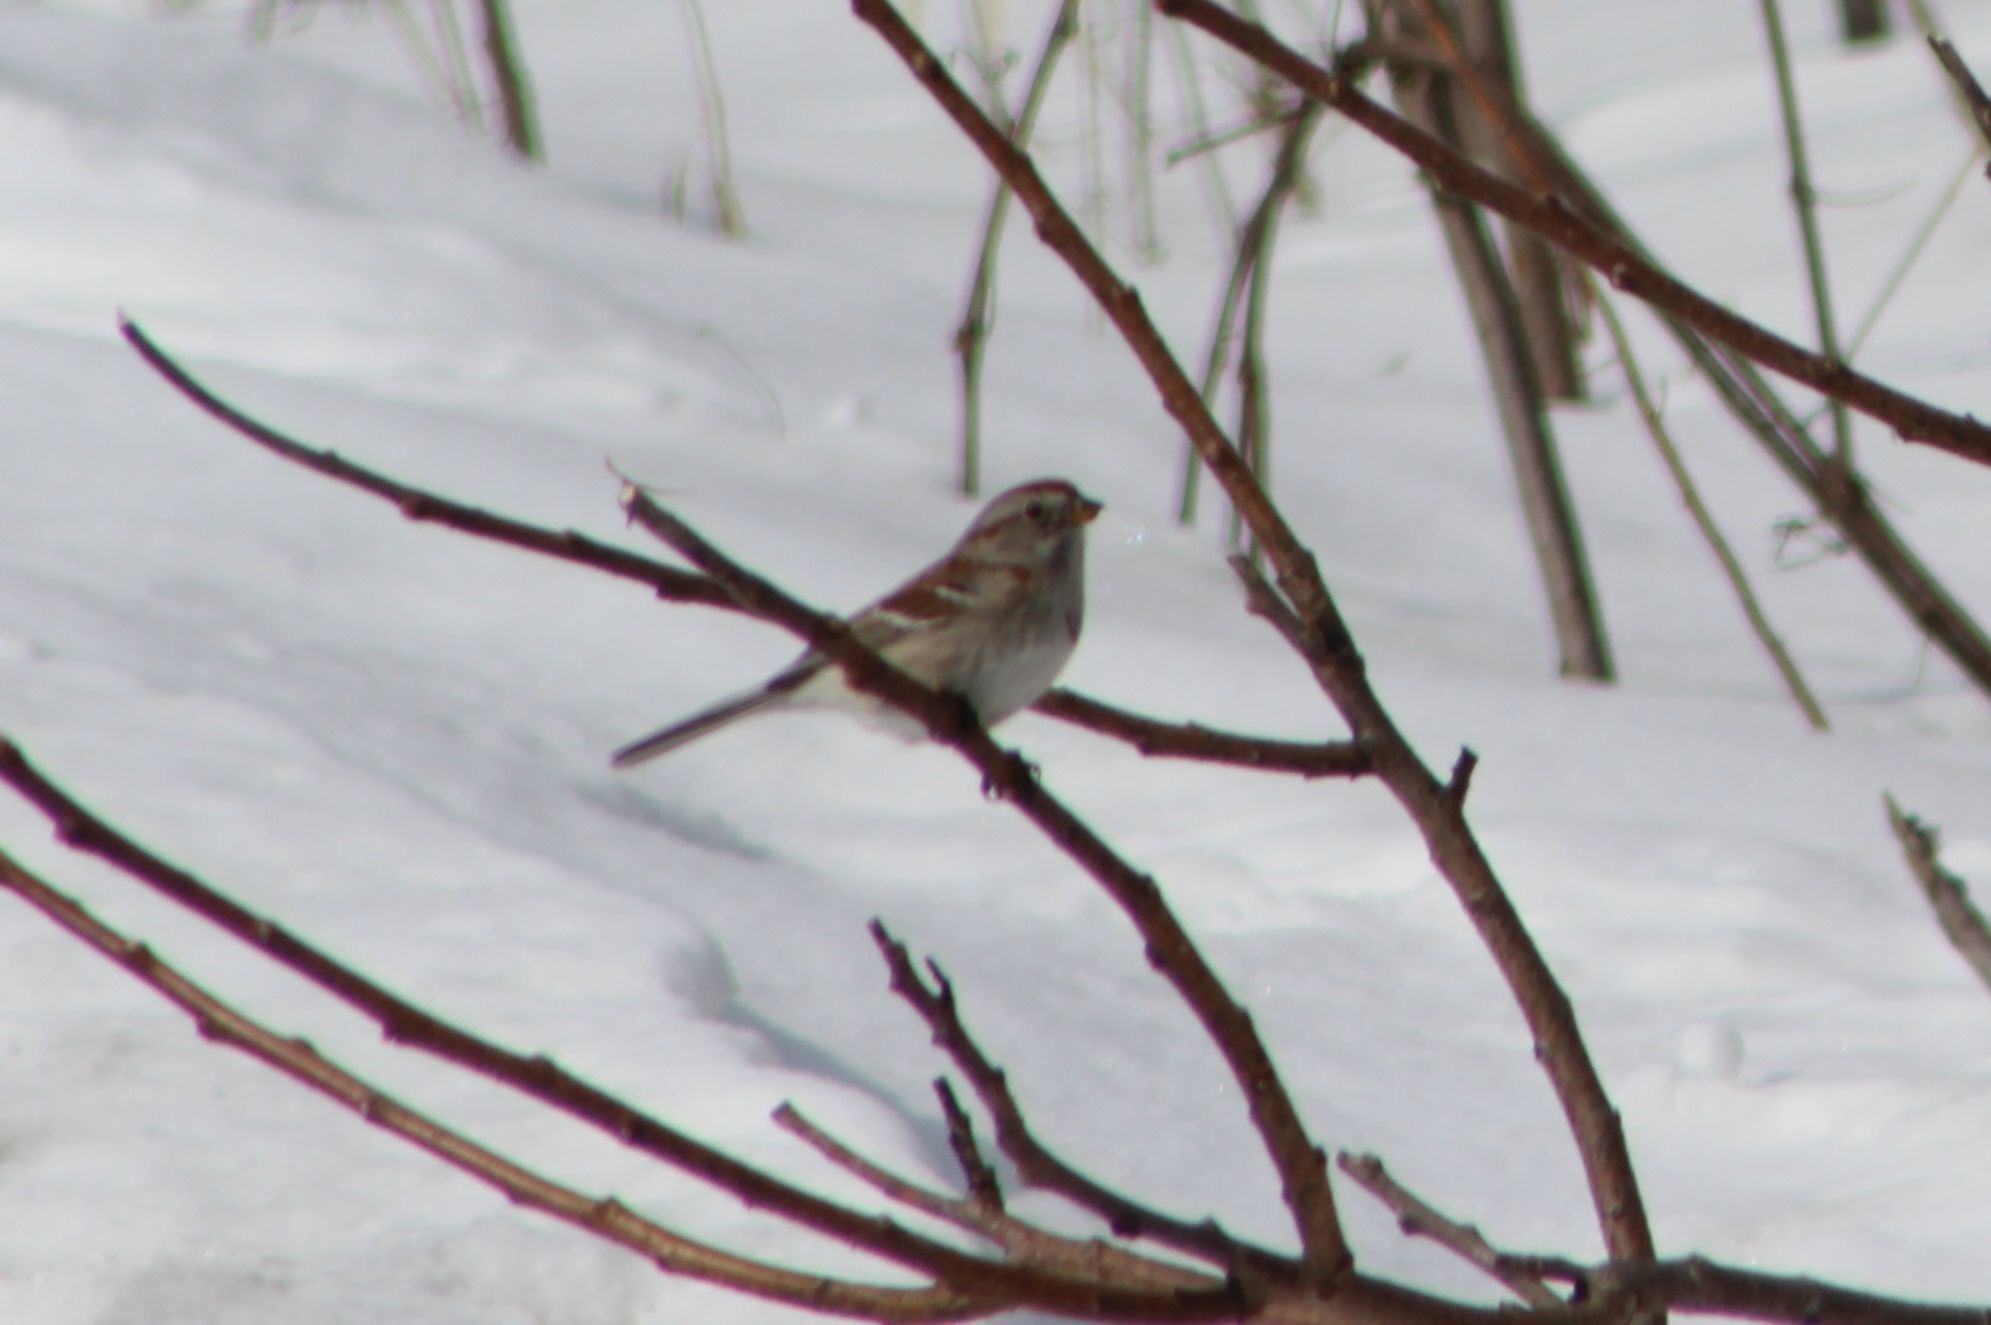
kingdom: Animalia
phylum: Chordata
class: Aves
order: Passeriformes
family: Passerellidae
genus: Spizelloides
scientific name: Spizelloides arborea
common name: American tree sparrow
